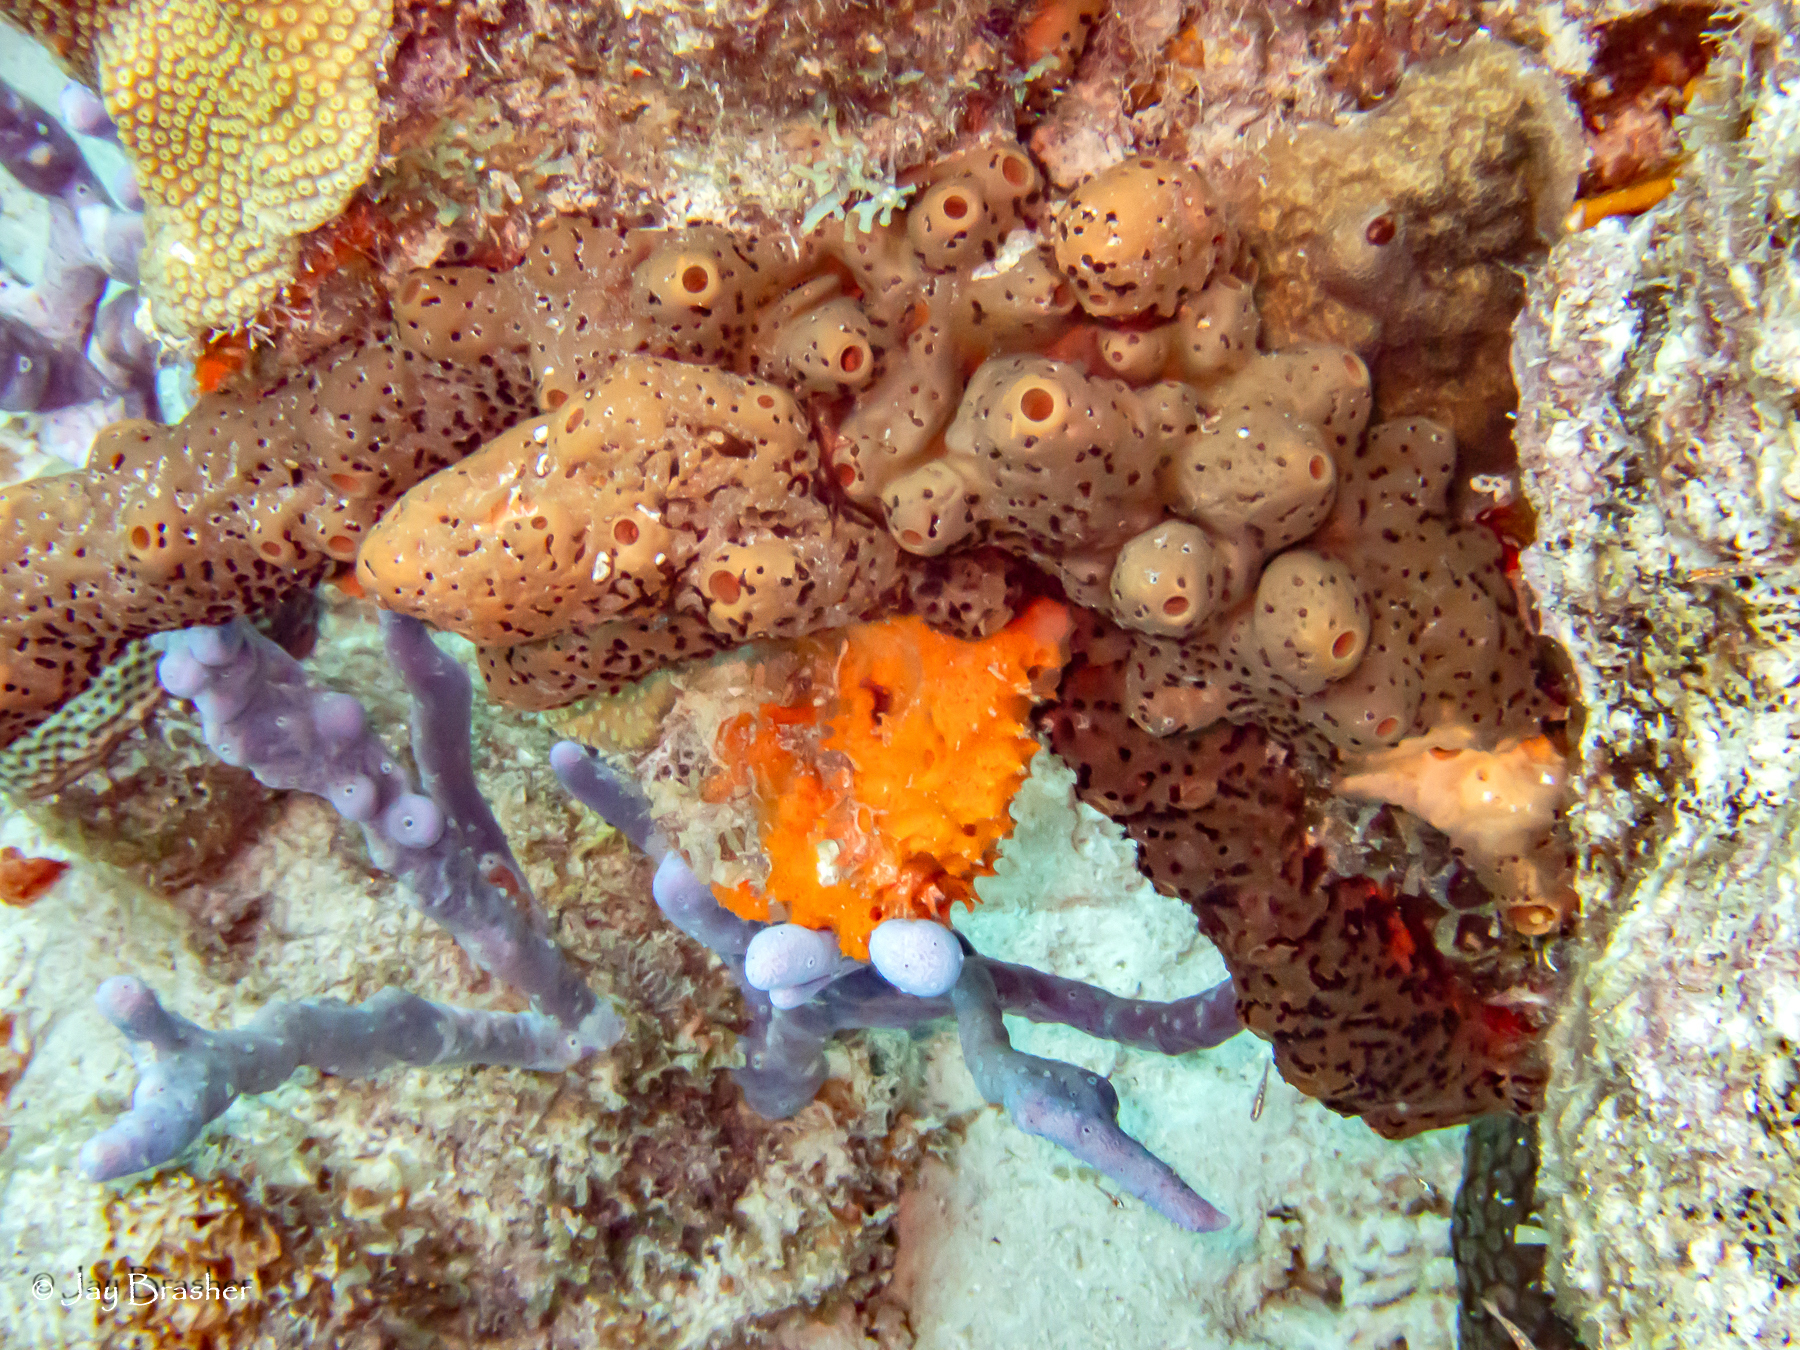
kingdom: Animalia
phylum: Porifera
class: Demospongiae
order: Agelasida
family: Agelasidae
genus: Agelas
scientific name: Agelas conifera
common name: Brown tube sponge
